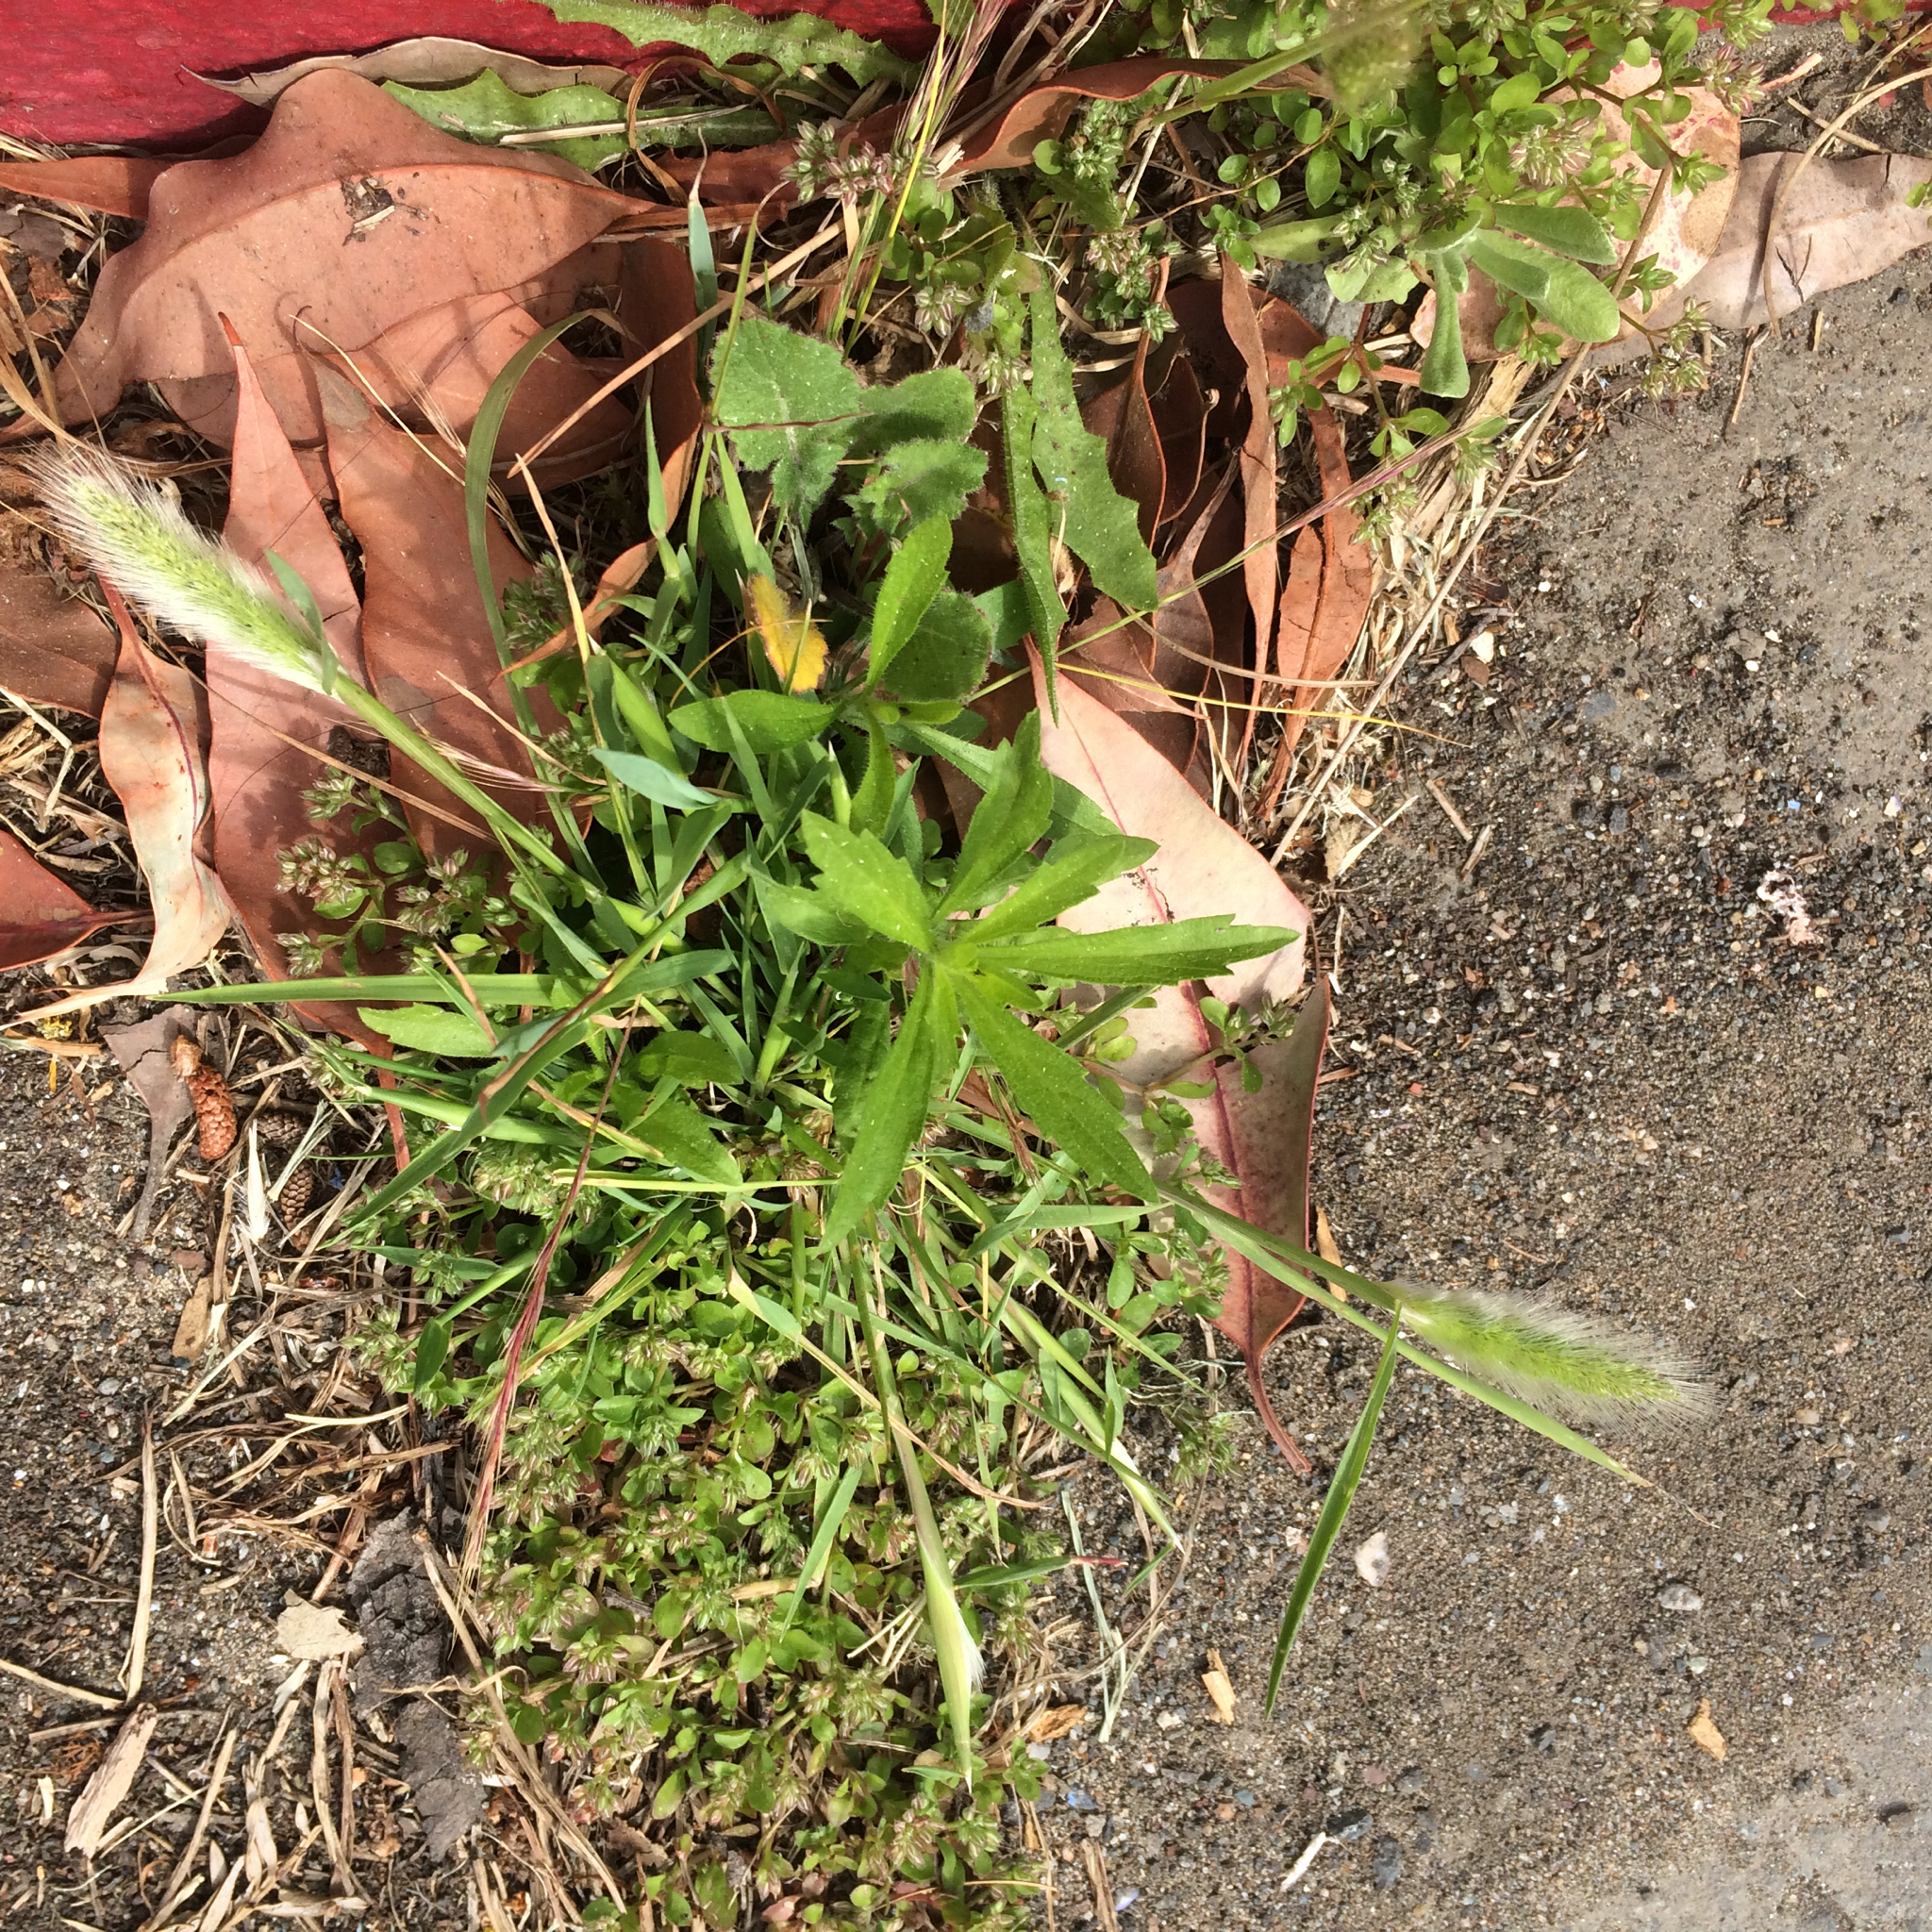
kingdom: Plantae
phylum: Tracheophyta
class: Liliopsida
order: Poales
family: Poaceae
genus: Polypogon
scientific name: Polypogon monspeliensis
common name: Annual rabbitsfoot grass
